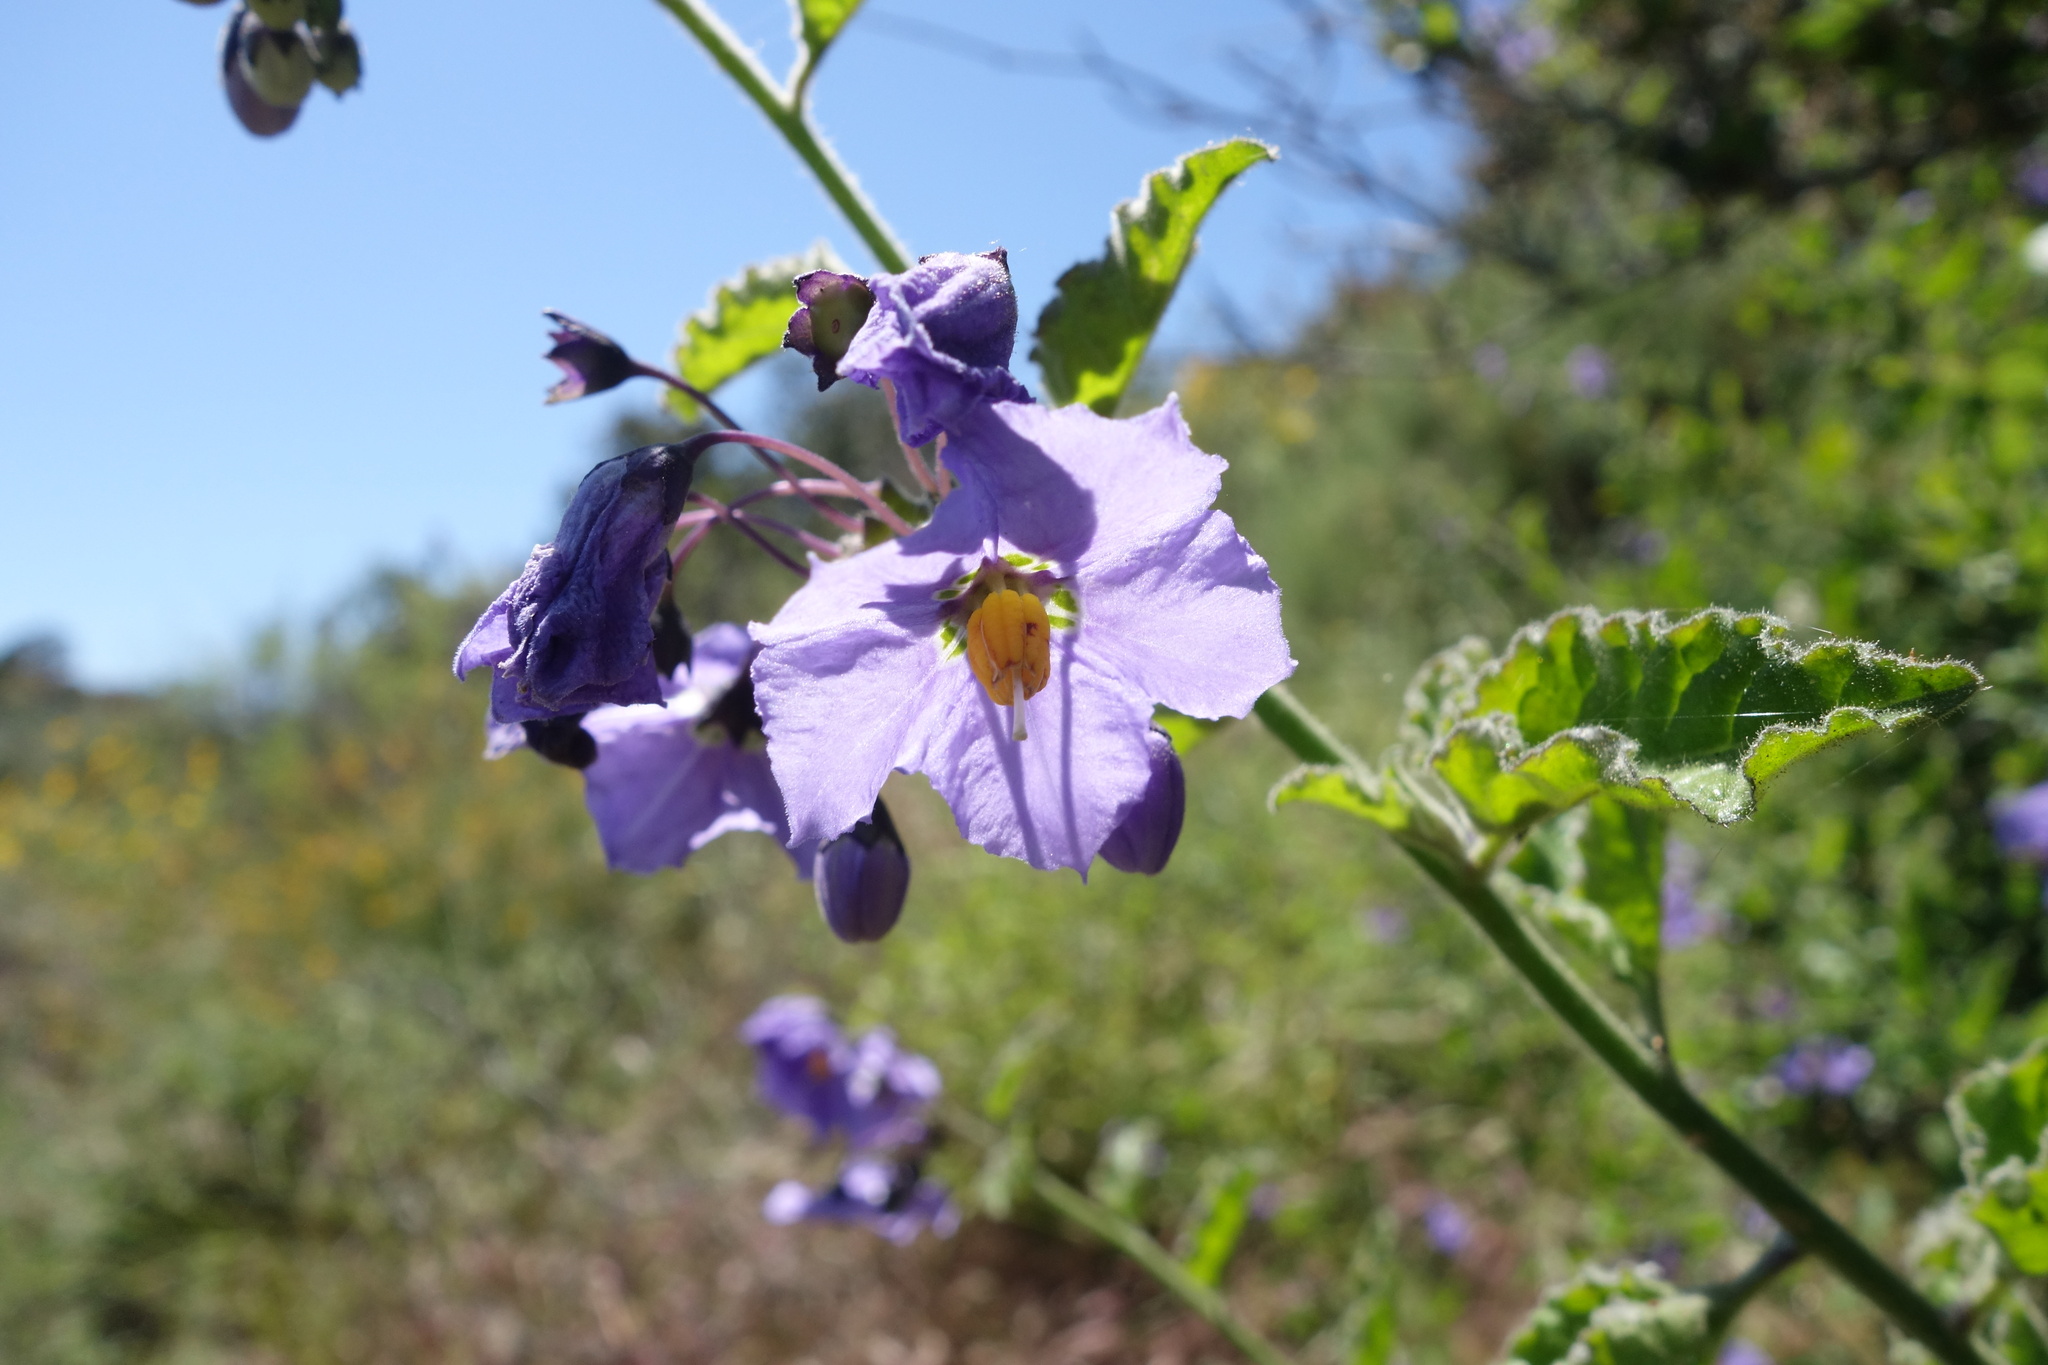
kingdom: Plantae
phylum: Tracheophyta
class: Magnoliopsida
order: Solanales
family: Solanaceae
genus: Solanum
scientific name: Solanum umbelliferum
